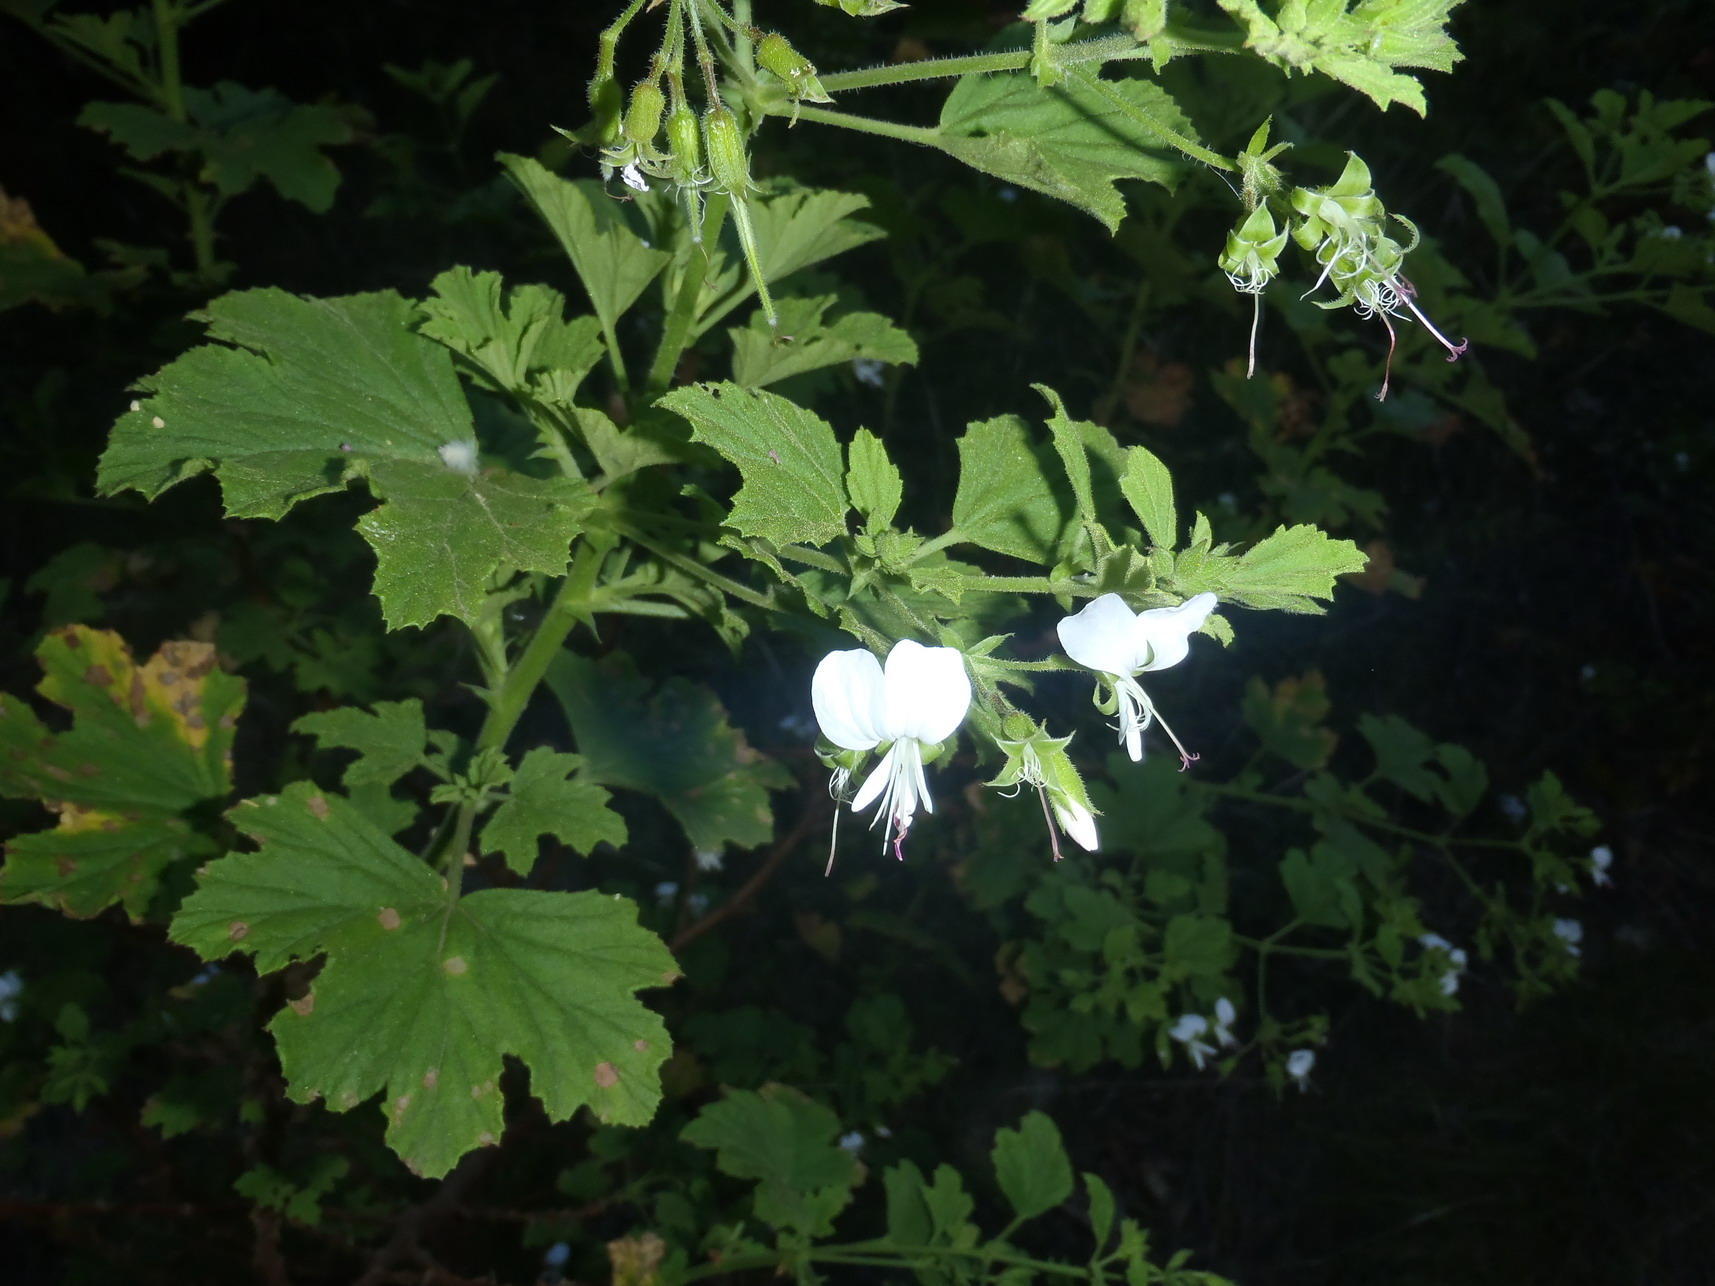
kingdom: Plantae
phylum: Tracheophyta
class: Magnoliopsida
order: Geraniales
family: Geraniaceae
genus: Pelargonium
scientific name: Pelargonium ribifolium
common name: Currant-leaf pelargonium
